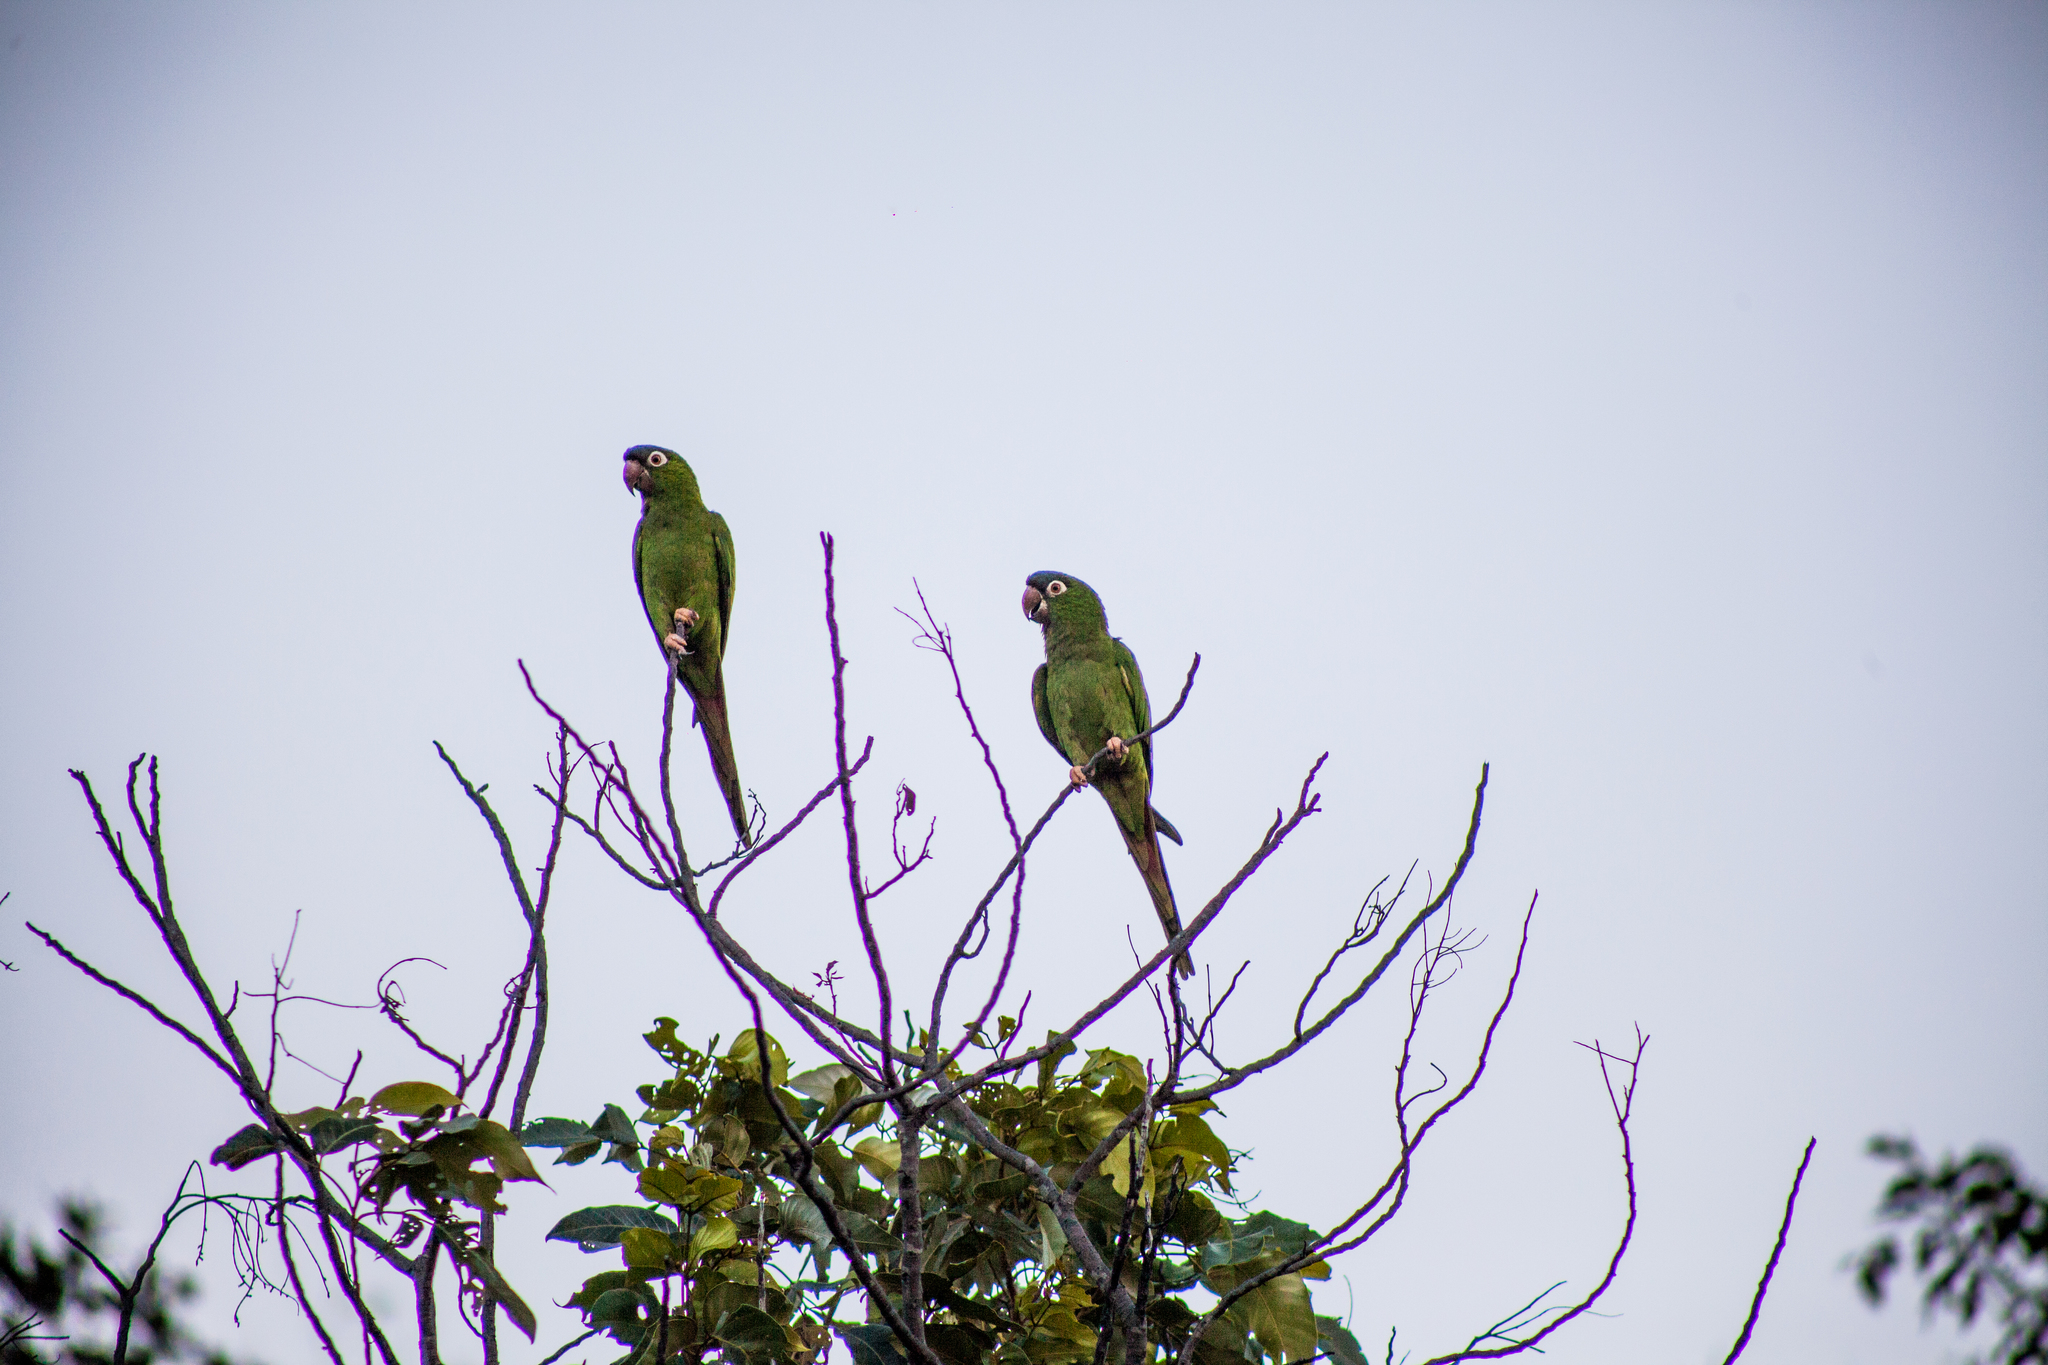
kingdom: Animalia
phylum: Chordata
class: Aves
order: Psittaciformes
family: Psittacidae
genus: Aratinga
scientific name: Aratinga acuticaudata
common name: Blue-crowned parakeet
